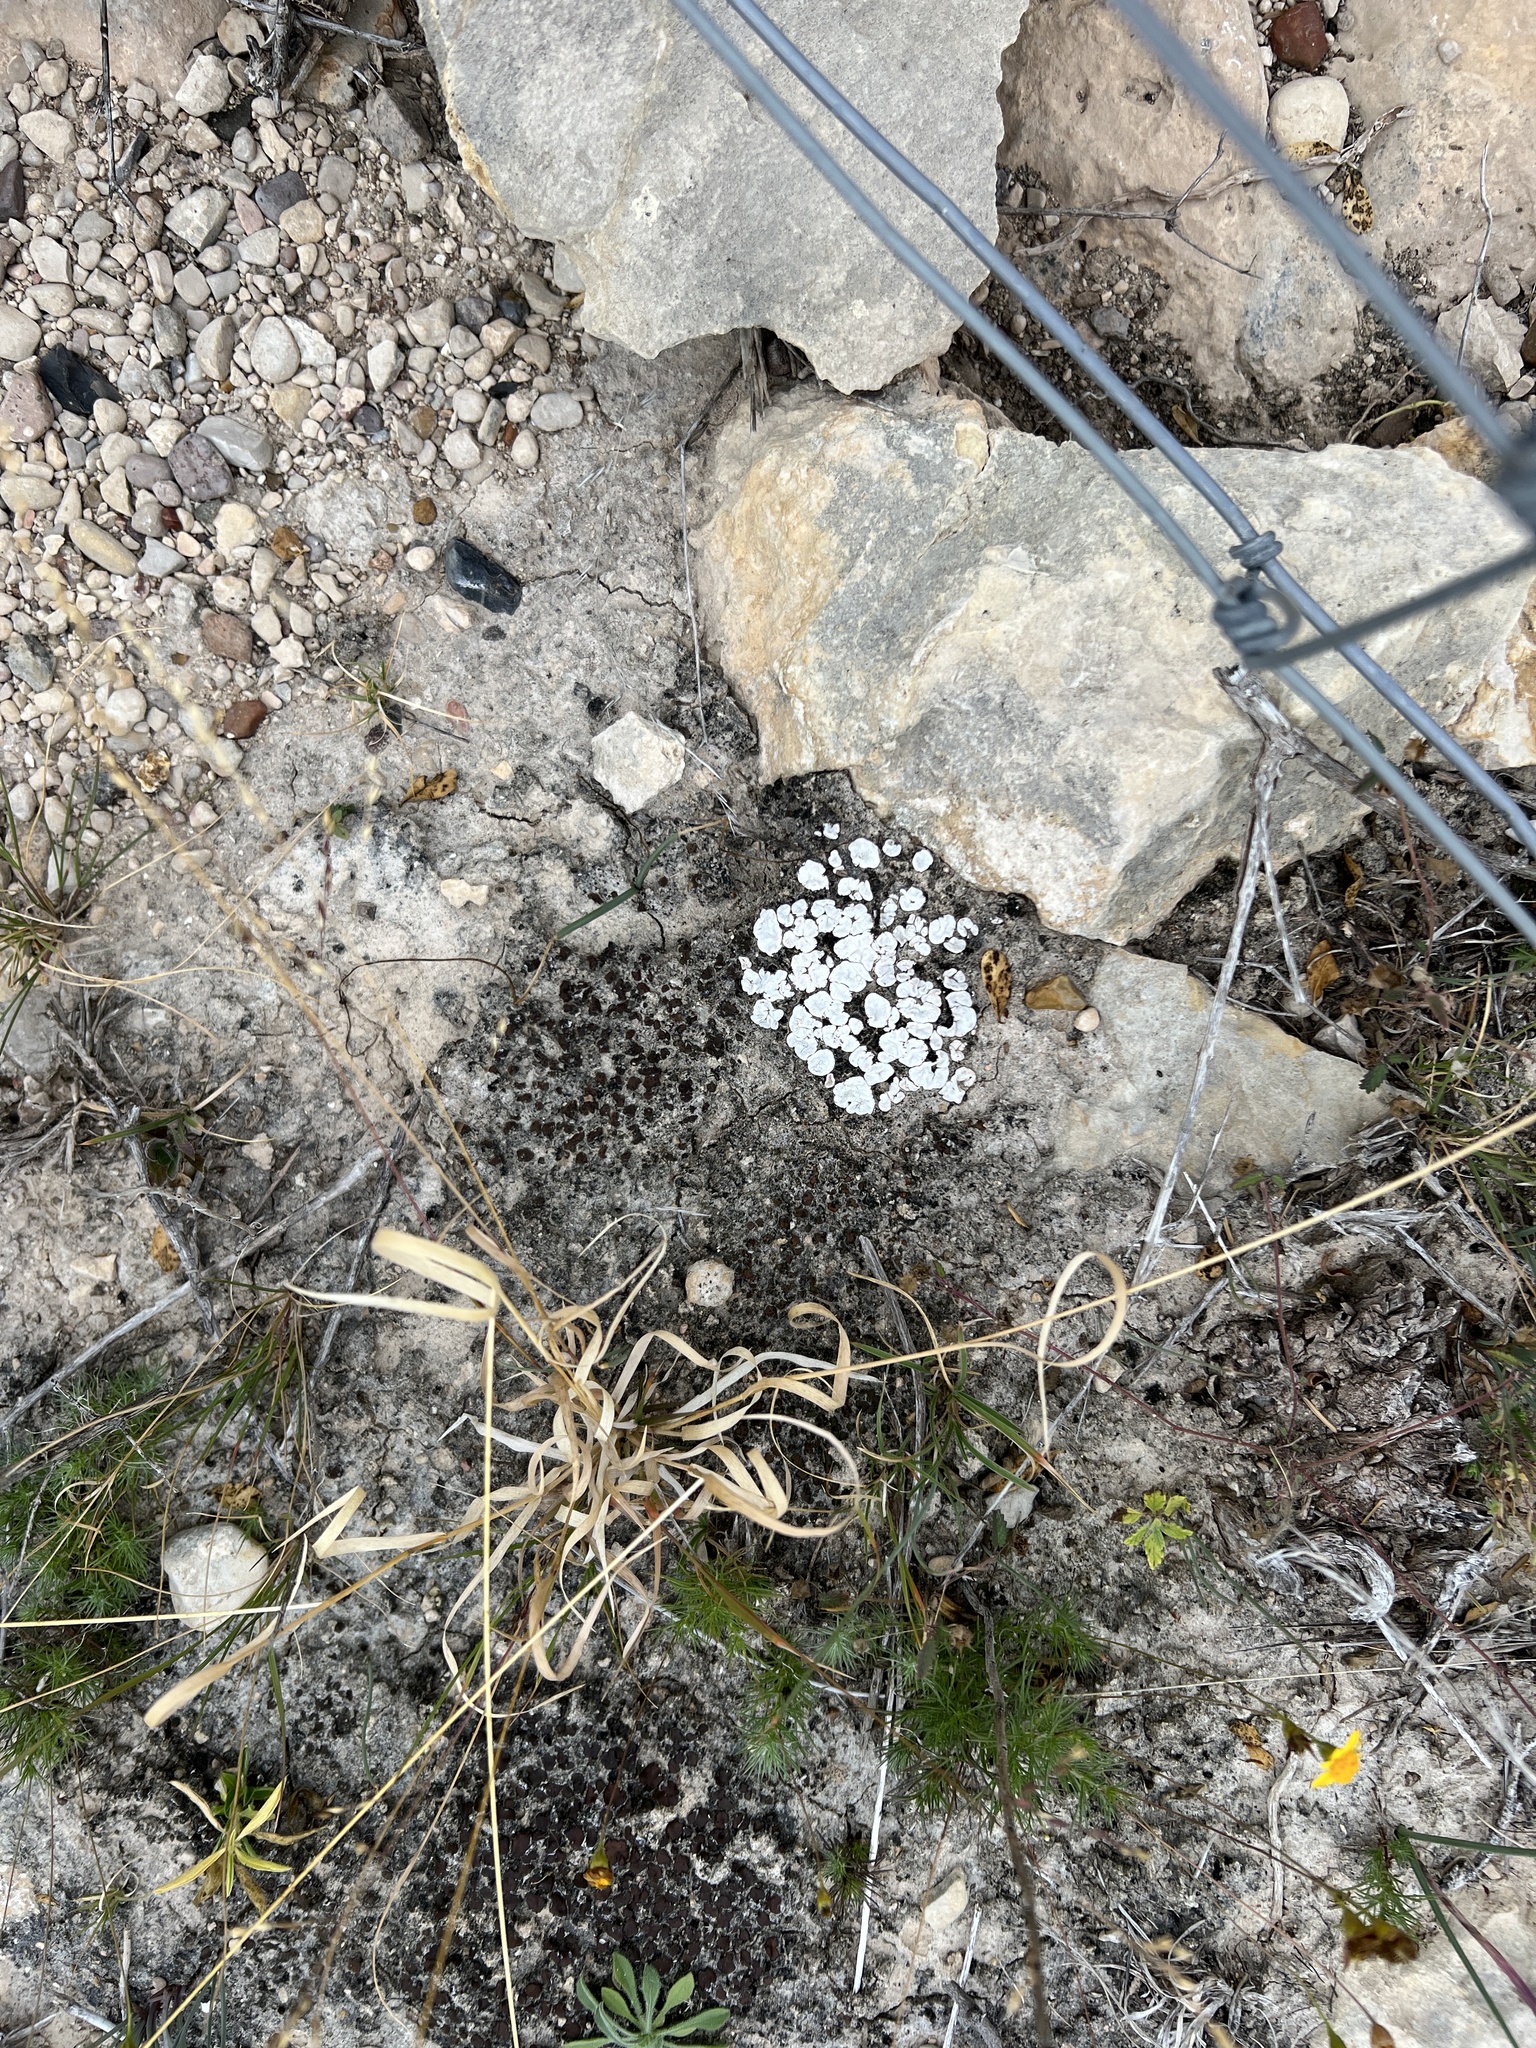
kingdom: Fungi
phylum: Ascomycota
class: Lecanoromycetes
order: Lecanorales
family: Psoraceae
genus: Psora
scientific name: Psora crenata
